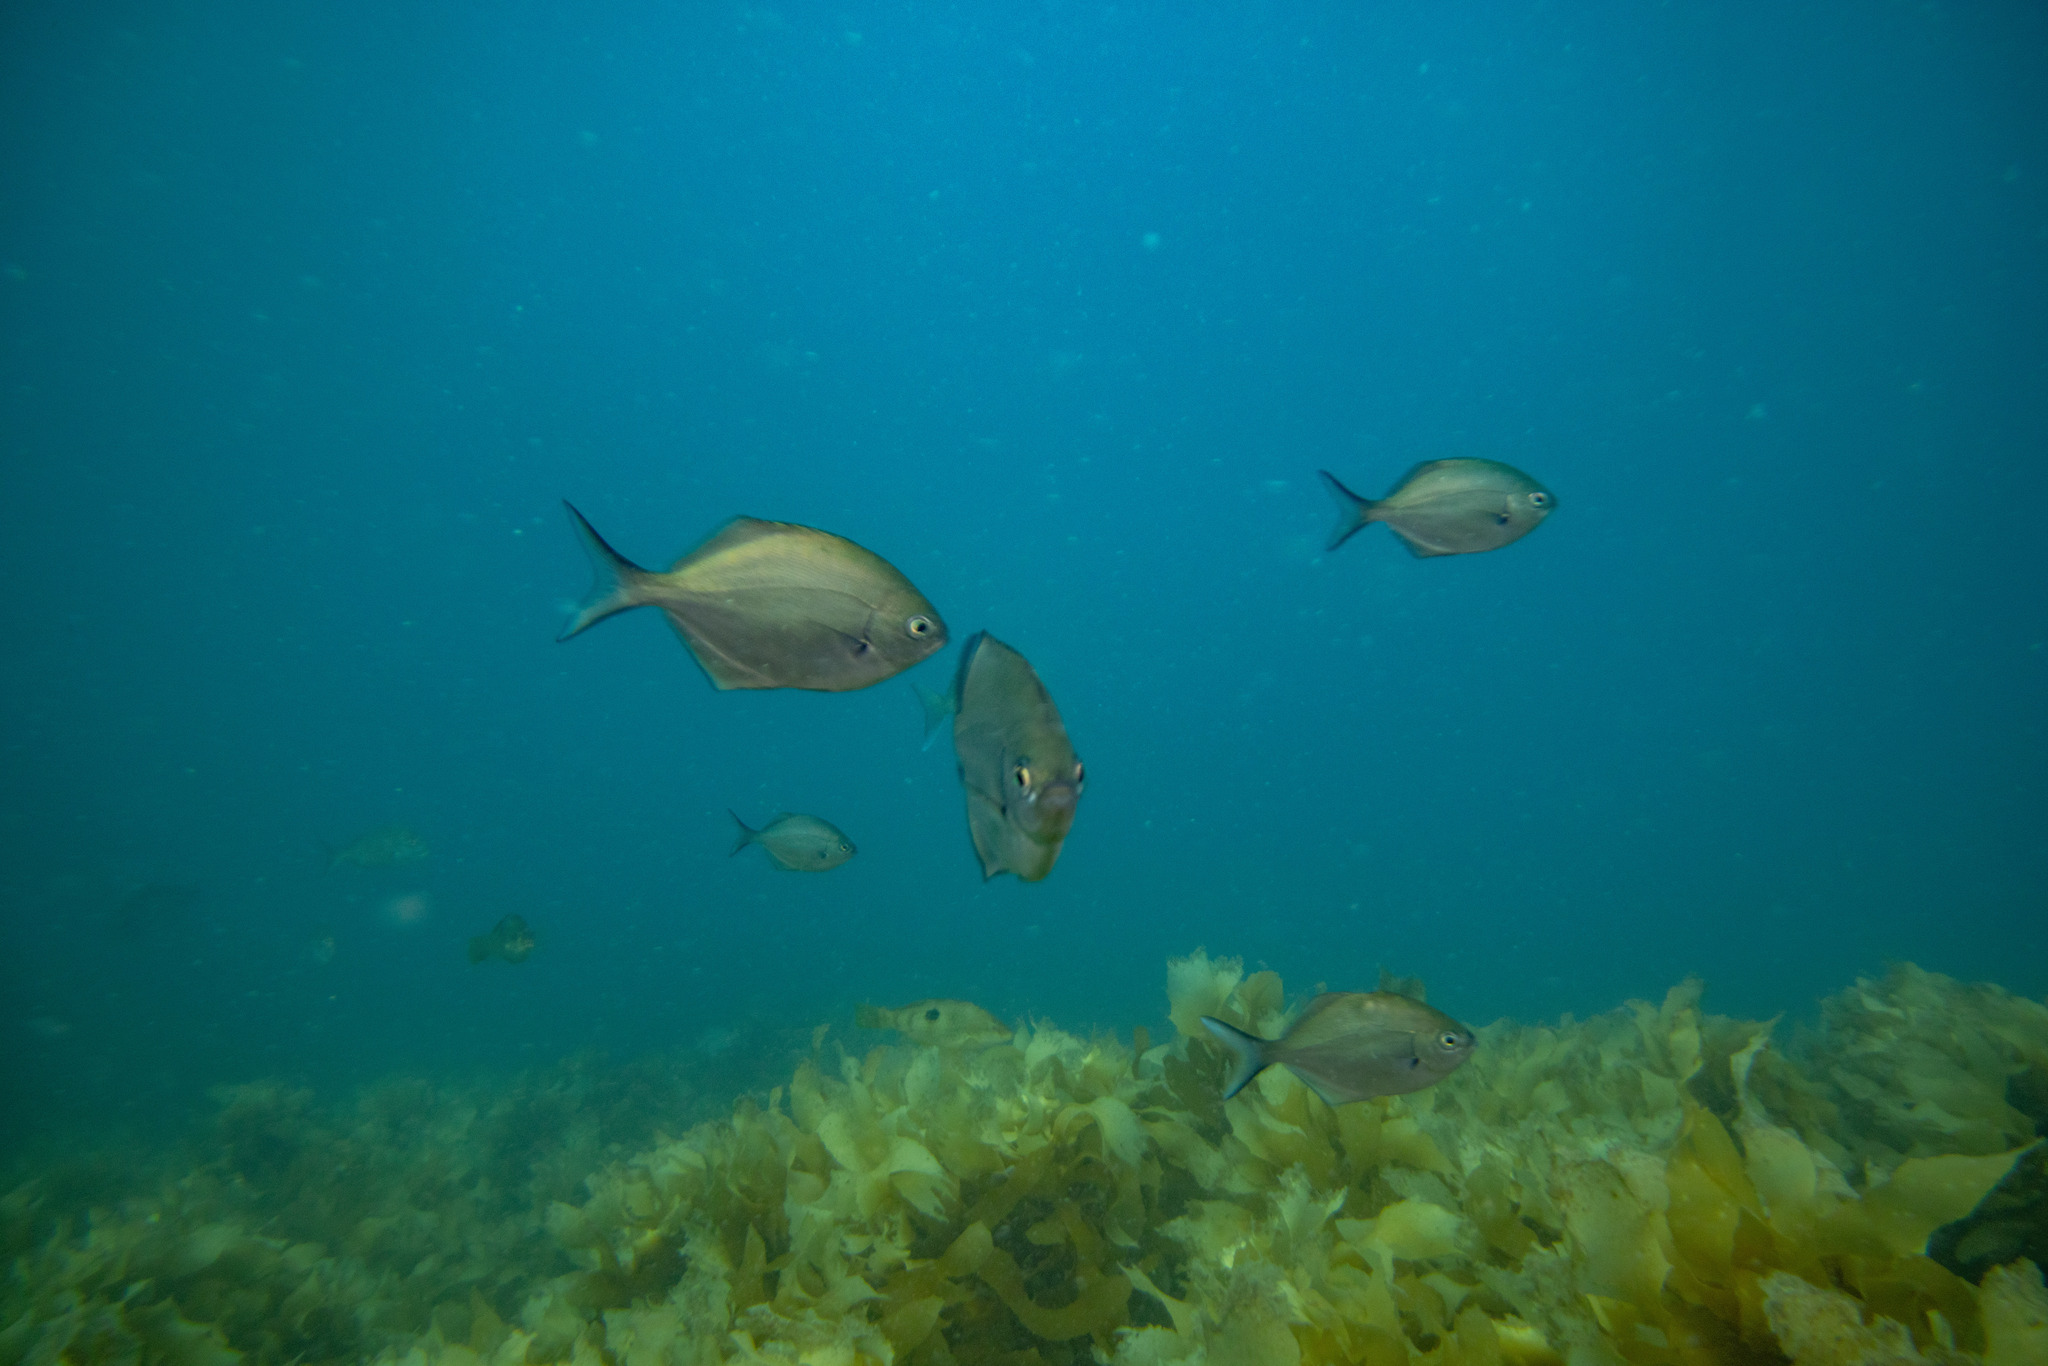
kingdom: Animalia
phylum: Chordata
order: Perciformes
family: Kyphosidae
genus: Scorpis
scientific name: Scorpis lineolata
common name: Sweep
